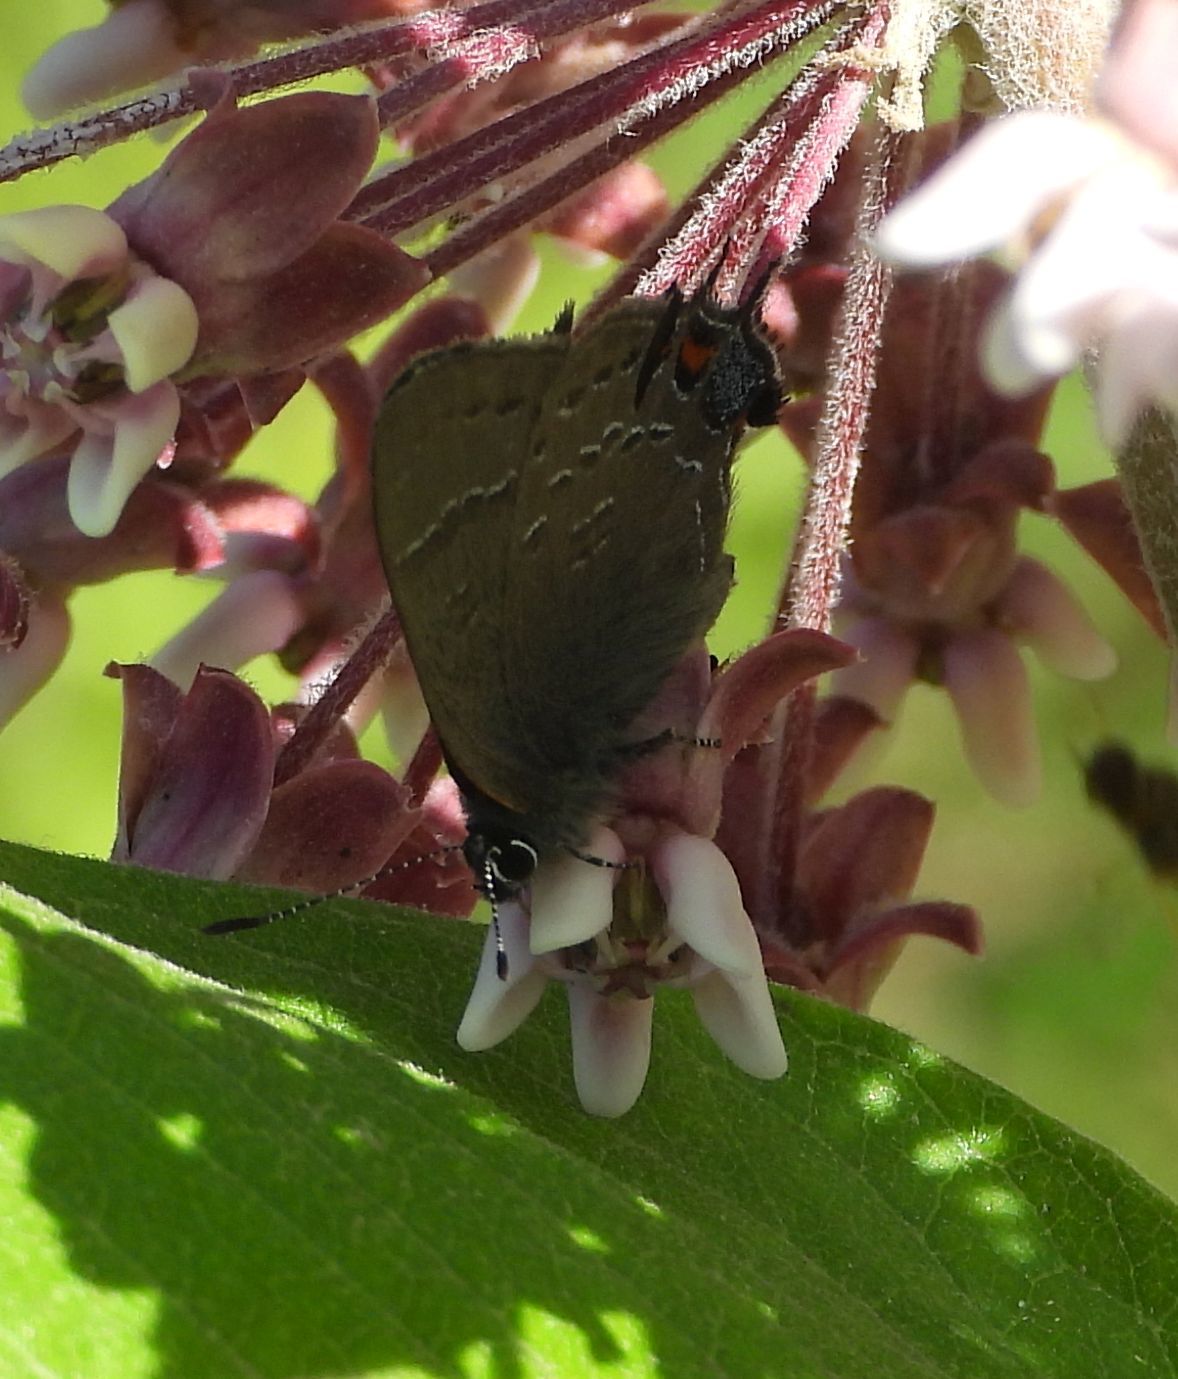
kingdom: Animalia
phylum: Arthropoda
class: Insecta
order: Lepidoptera
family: Lycaenidae
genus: Satyrium
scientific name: Satyrium calanus
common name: Banded hairstreak
